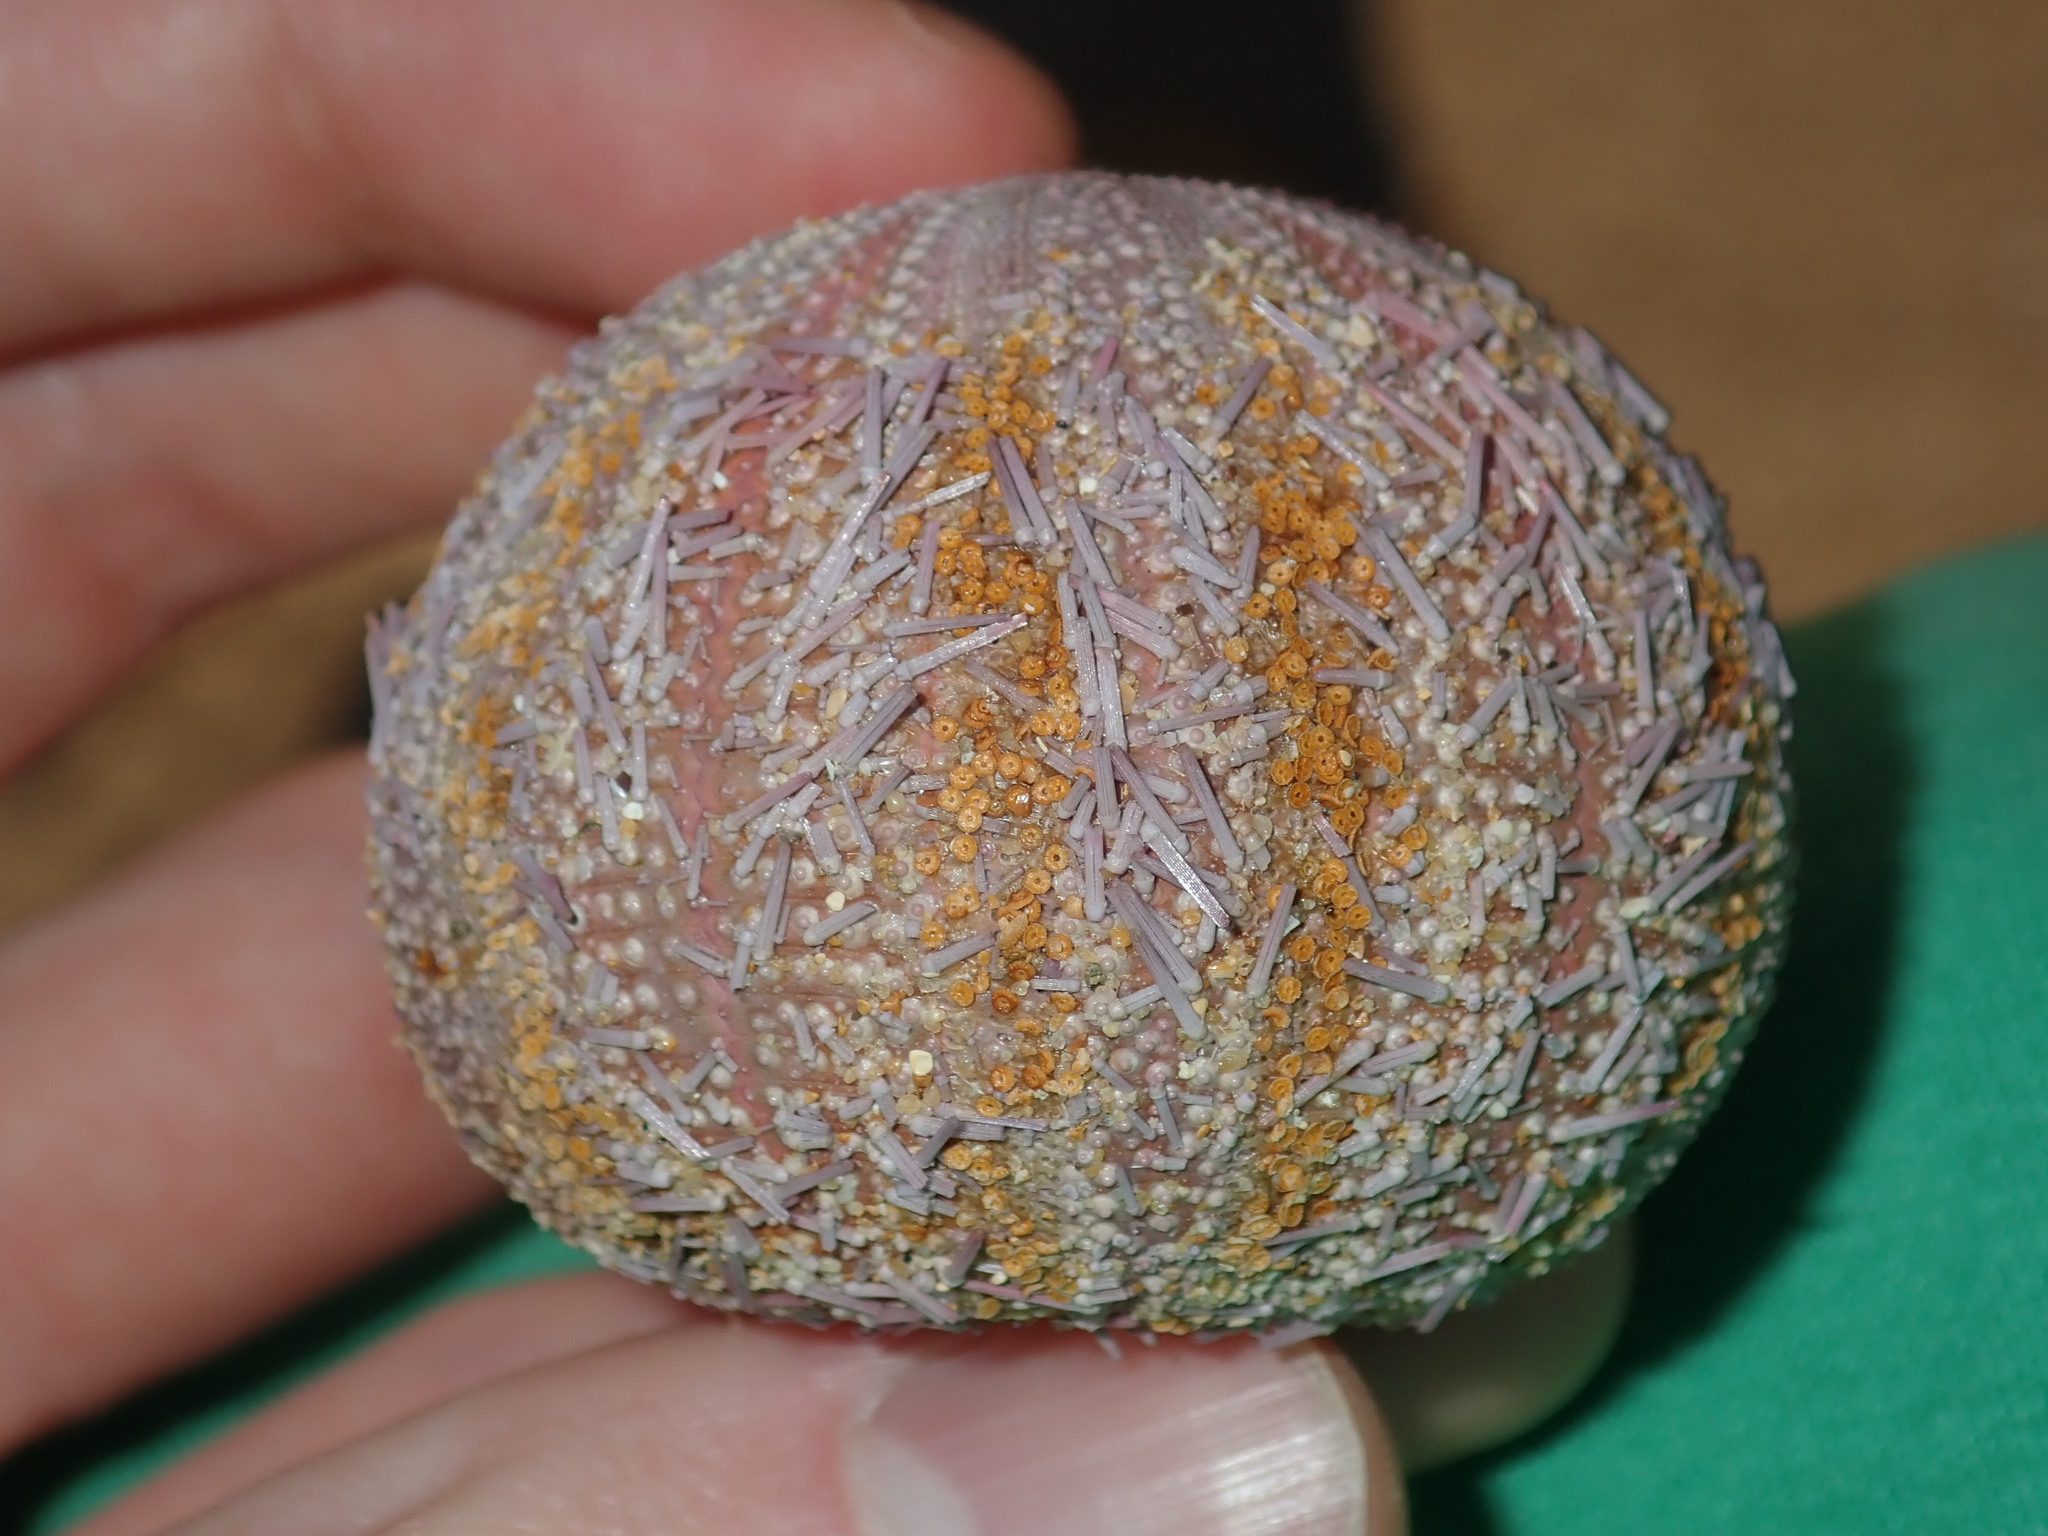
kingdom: Animalia
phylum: Echinodermata
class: Echinoidea
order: Camarodonta
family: Temnopleuridae
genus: Holopneustes
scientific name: Holopneustes purpurascens
